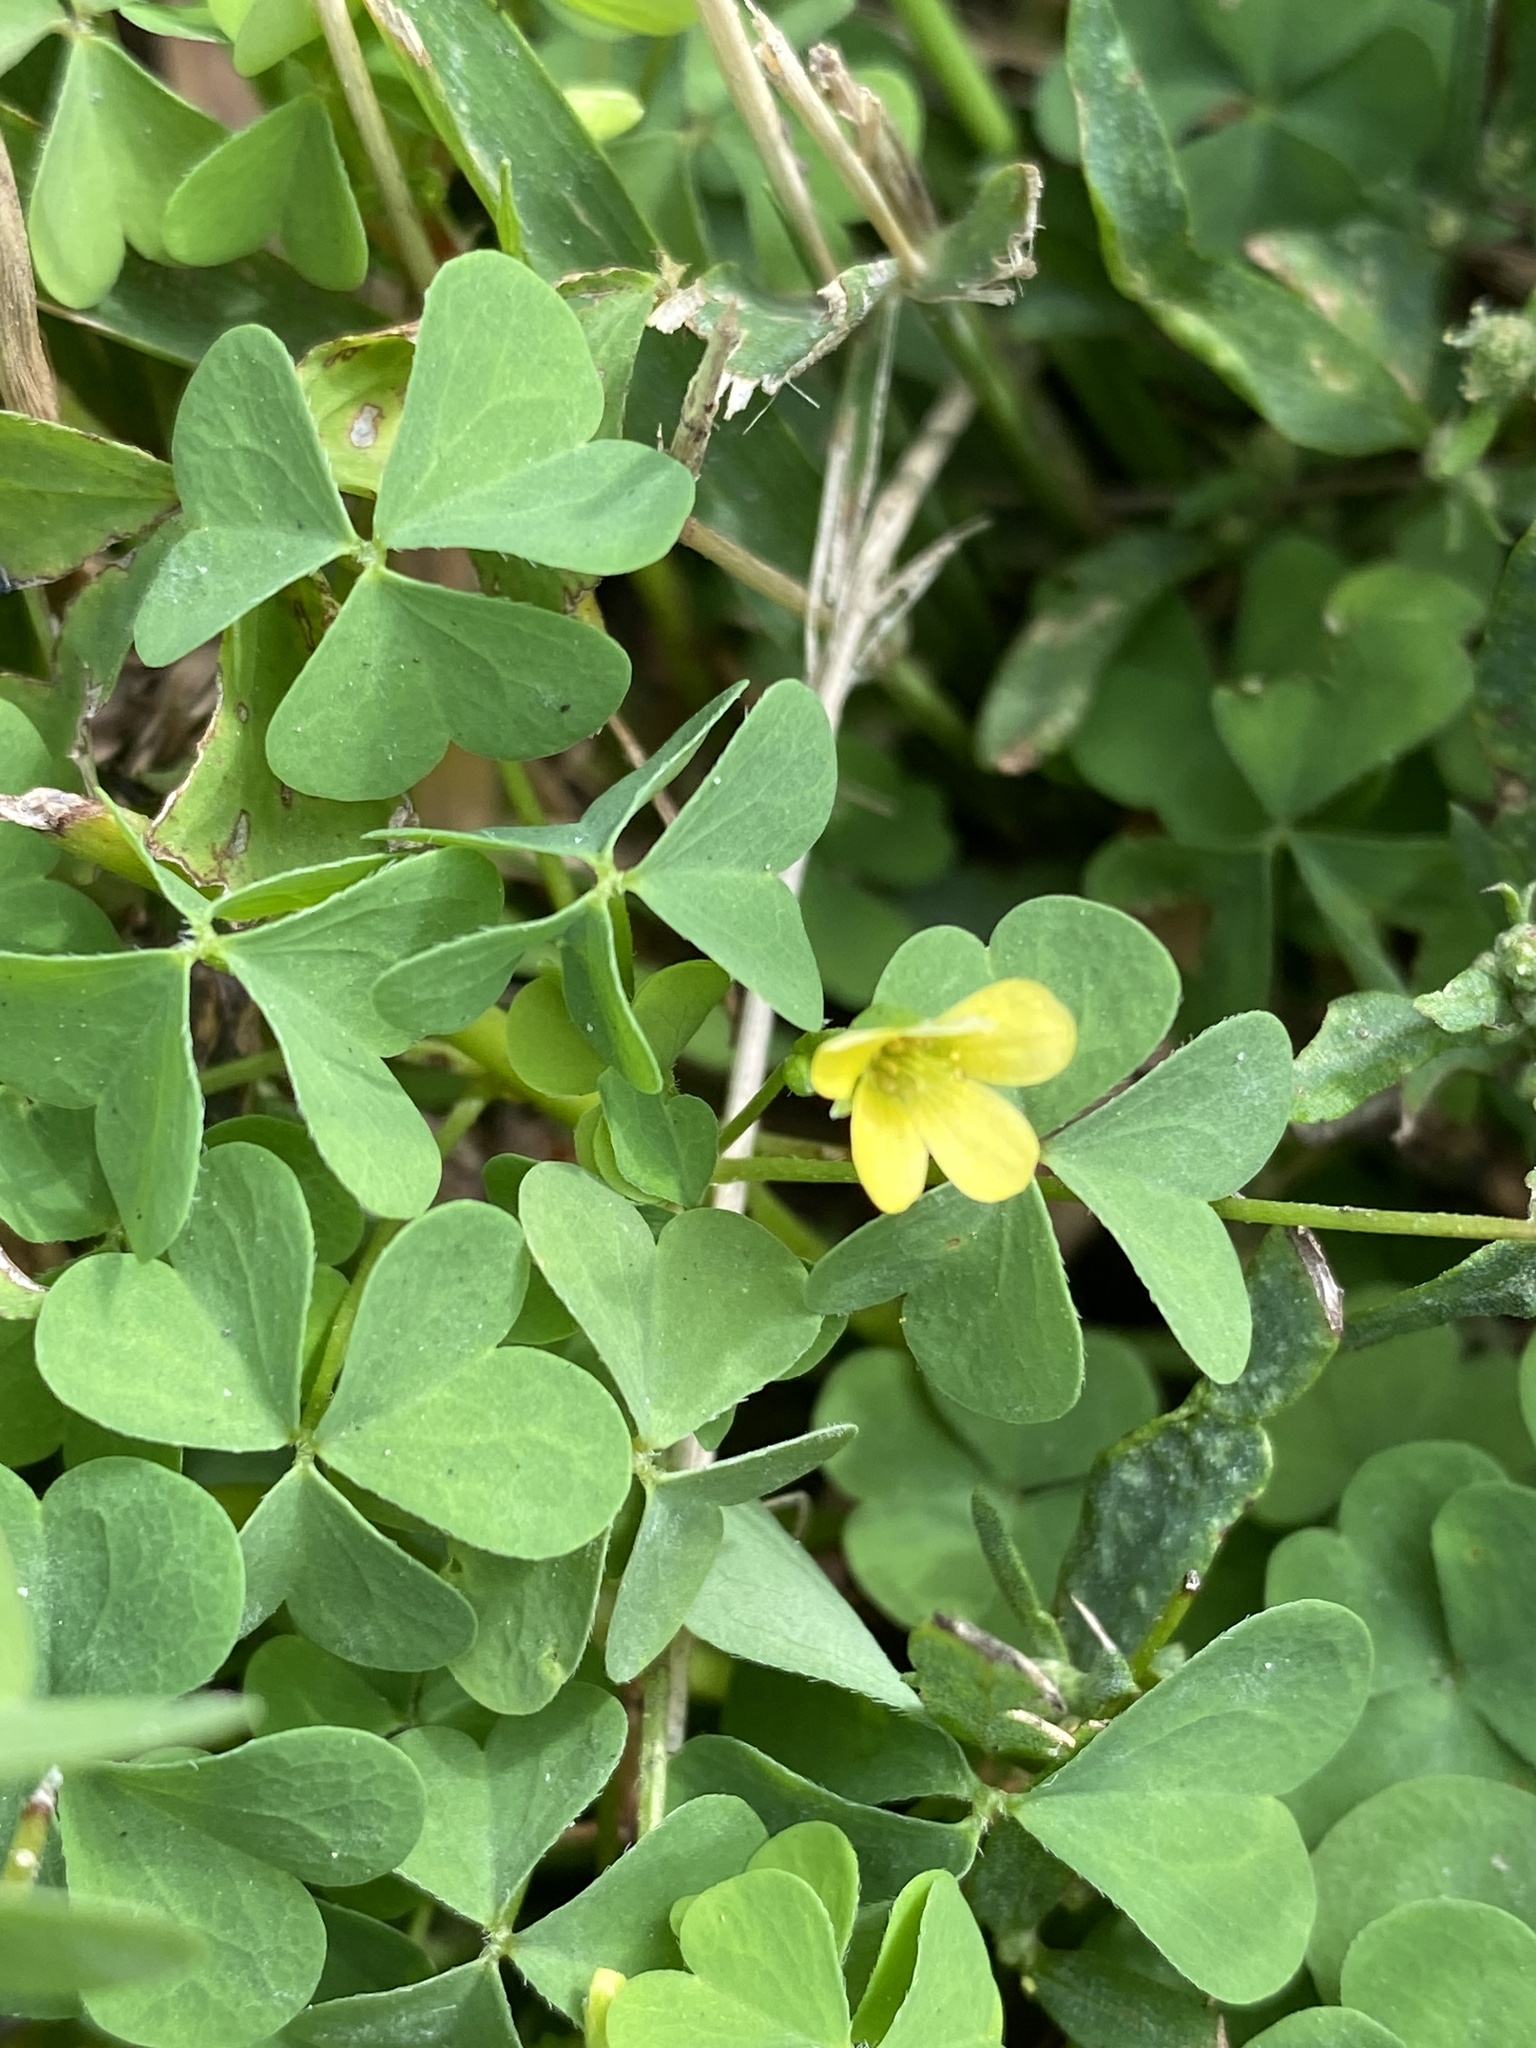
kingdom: Plantae
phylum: Tracheophyta
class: Magnoliopsida
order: Oxalidales
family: Oxalidaceae
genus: Oxalis
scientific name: Oxalis stricta
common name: Upright yellow-sorrel
